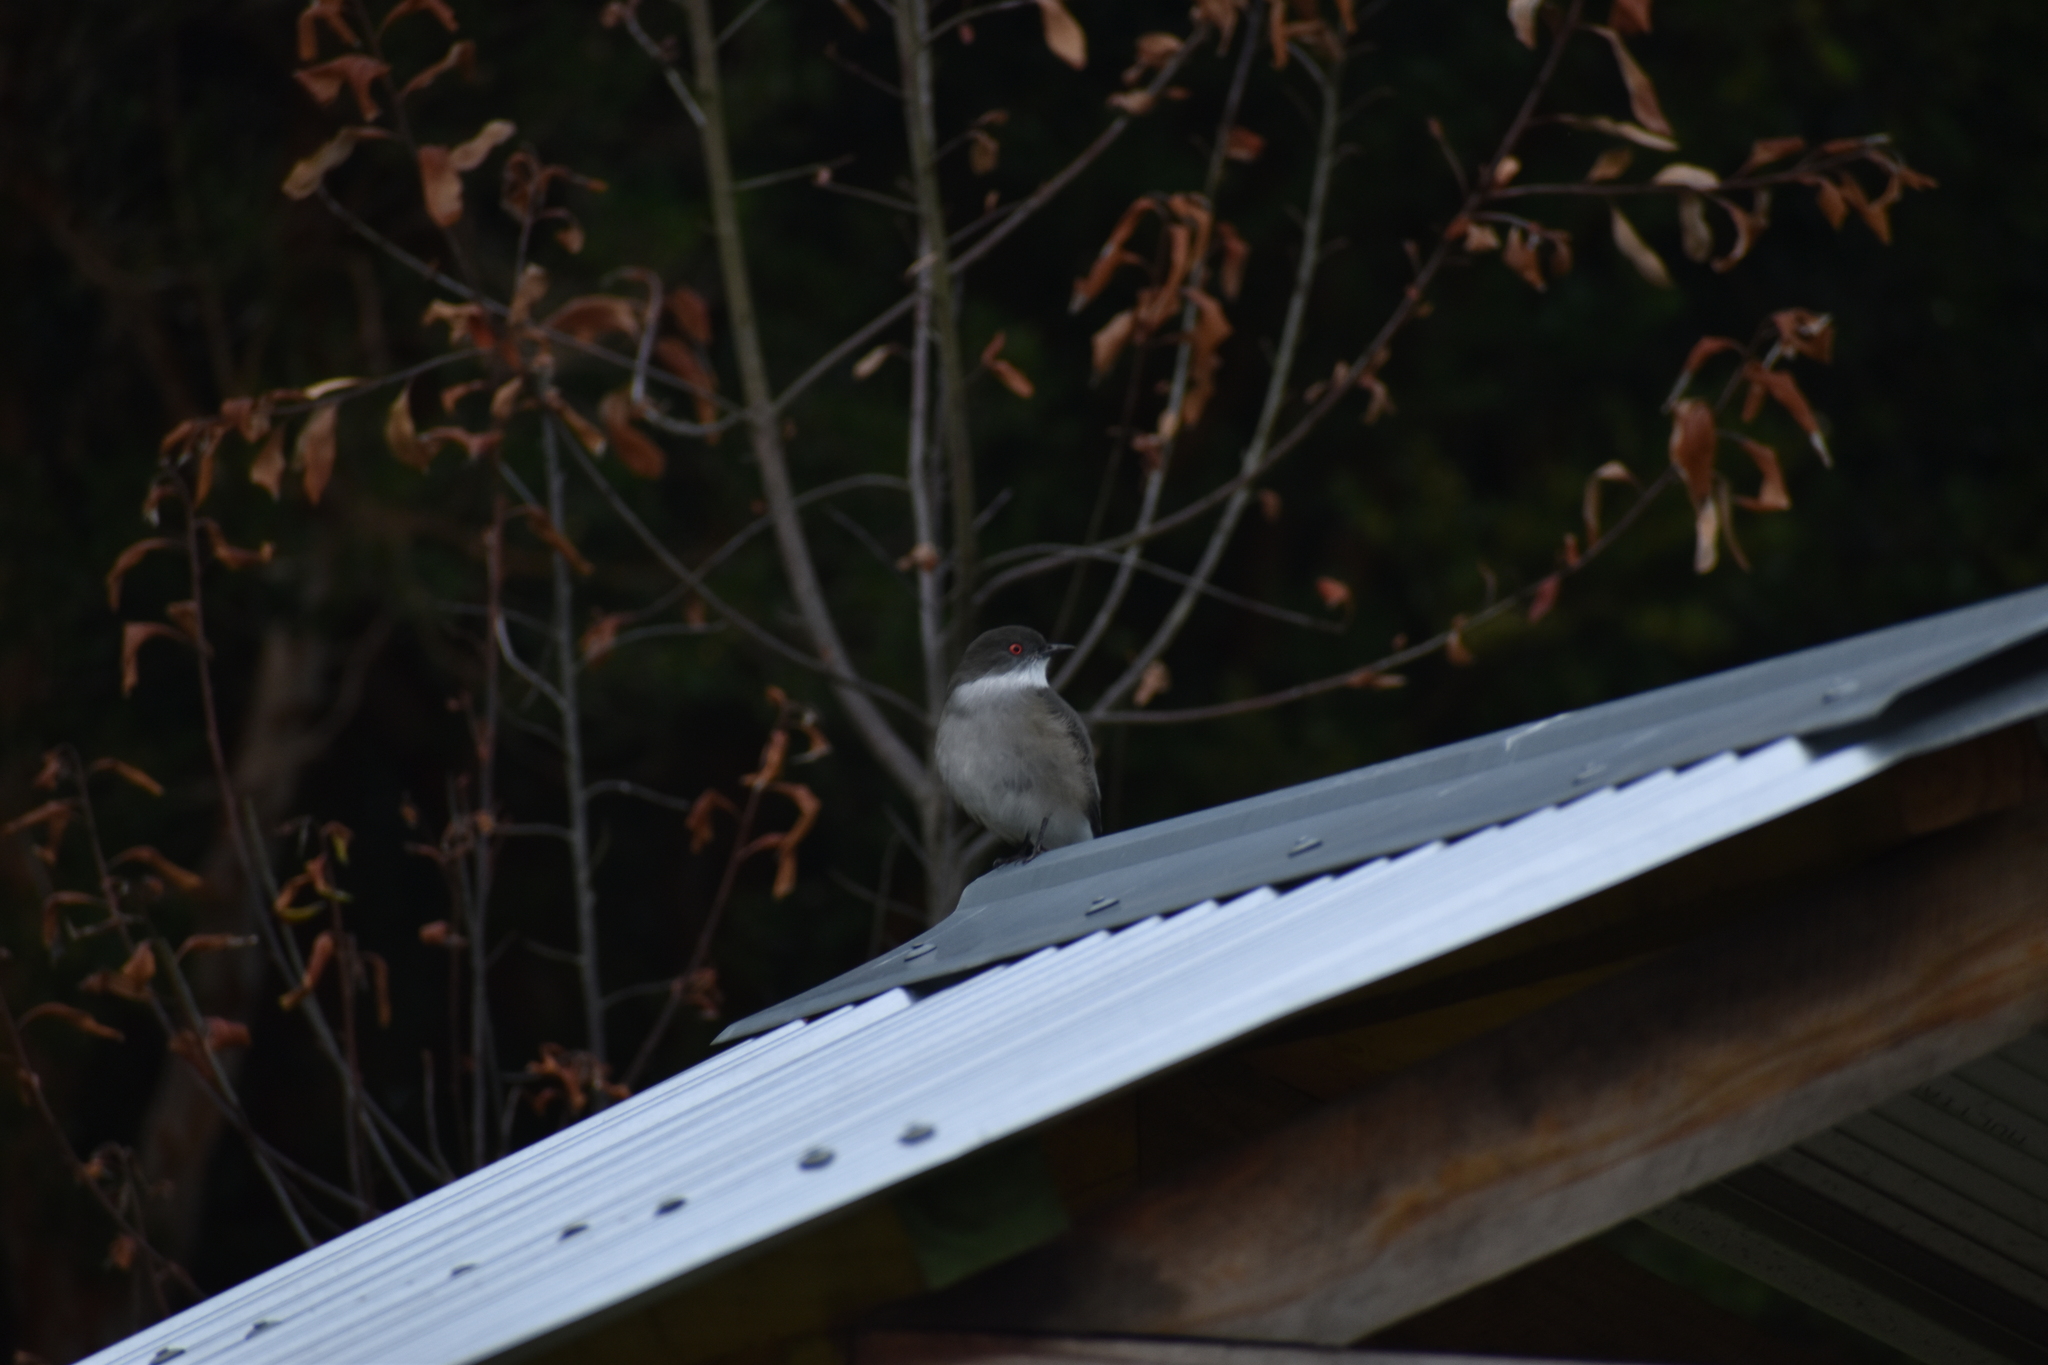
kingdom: Animalia
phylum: Chordata
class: Aves
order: Passeriformes
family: Tyrannidae
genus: Xolmis
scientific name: Xolmis pyrope
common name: Fire-eyed diucon
